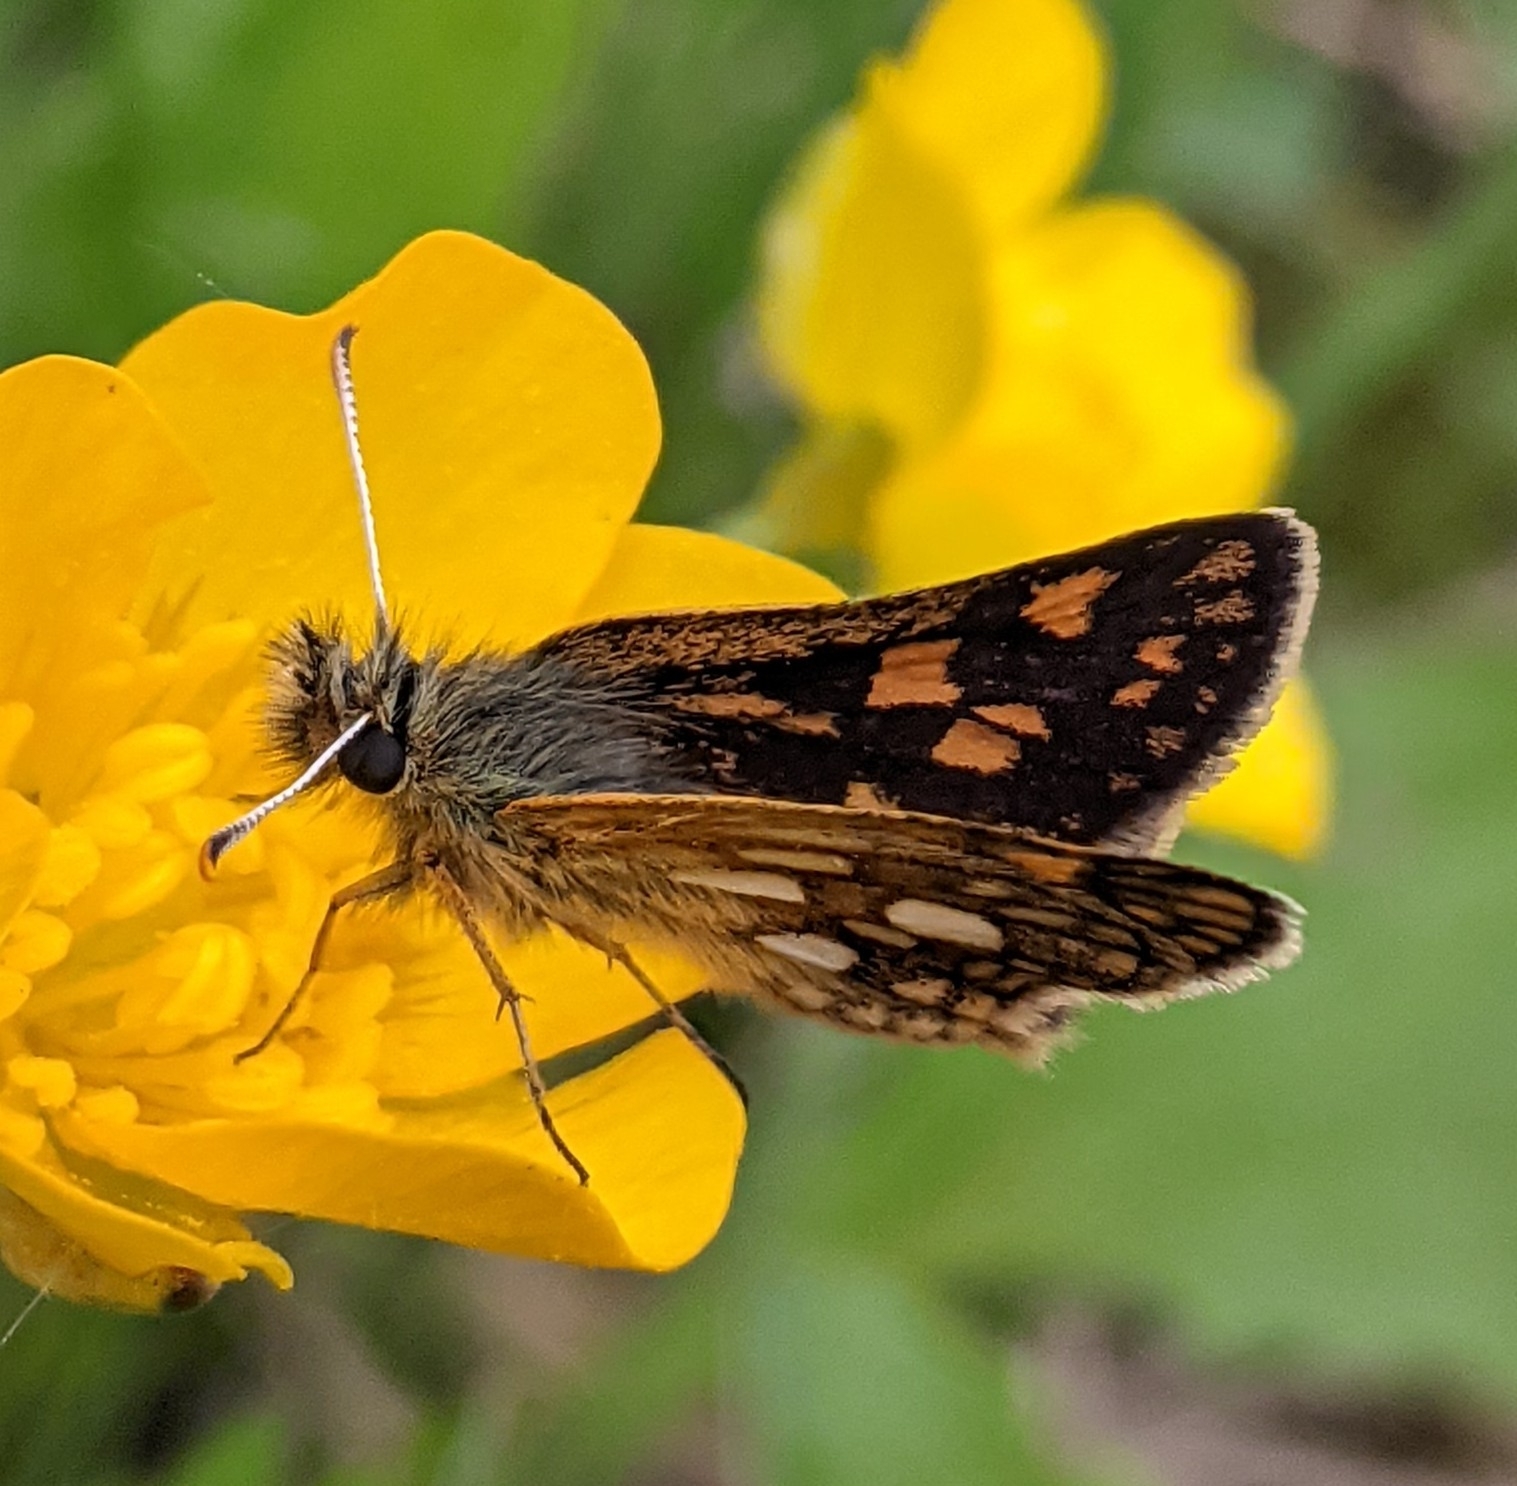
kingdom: Animalia
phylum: Arthropoda
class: Insecta
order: Lepidoptera
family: Hesperiidae
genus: Carterocephalus
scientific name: Carterocephalus palaemon
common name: Chequered skipper
